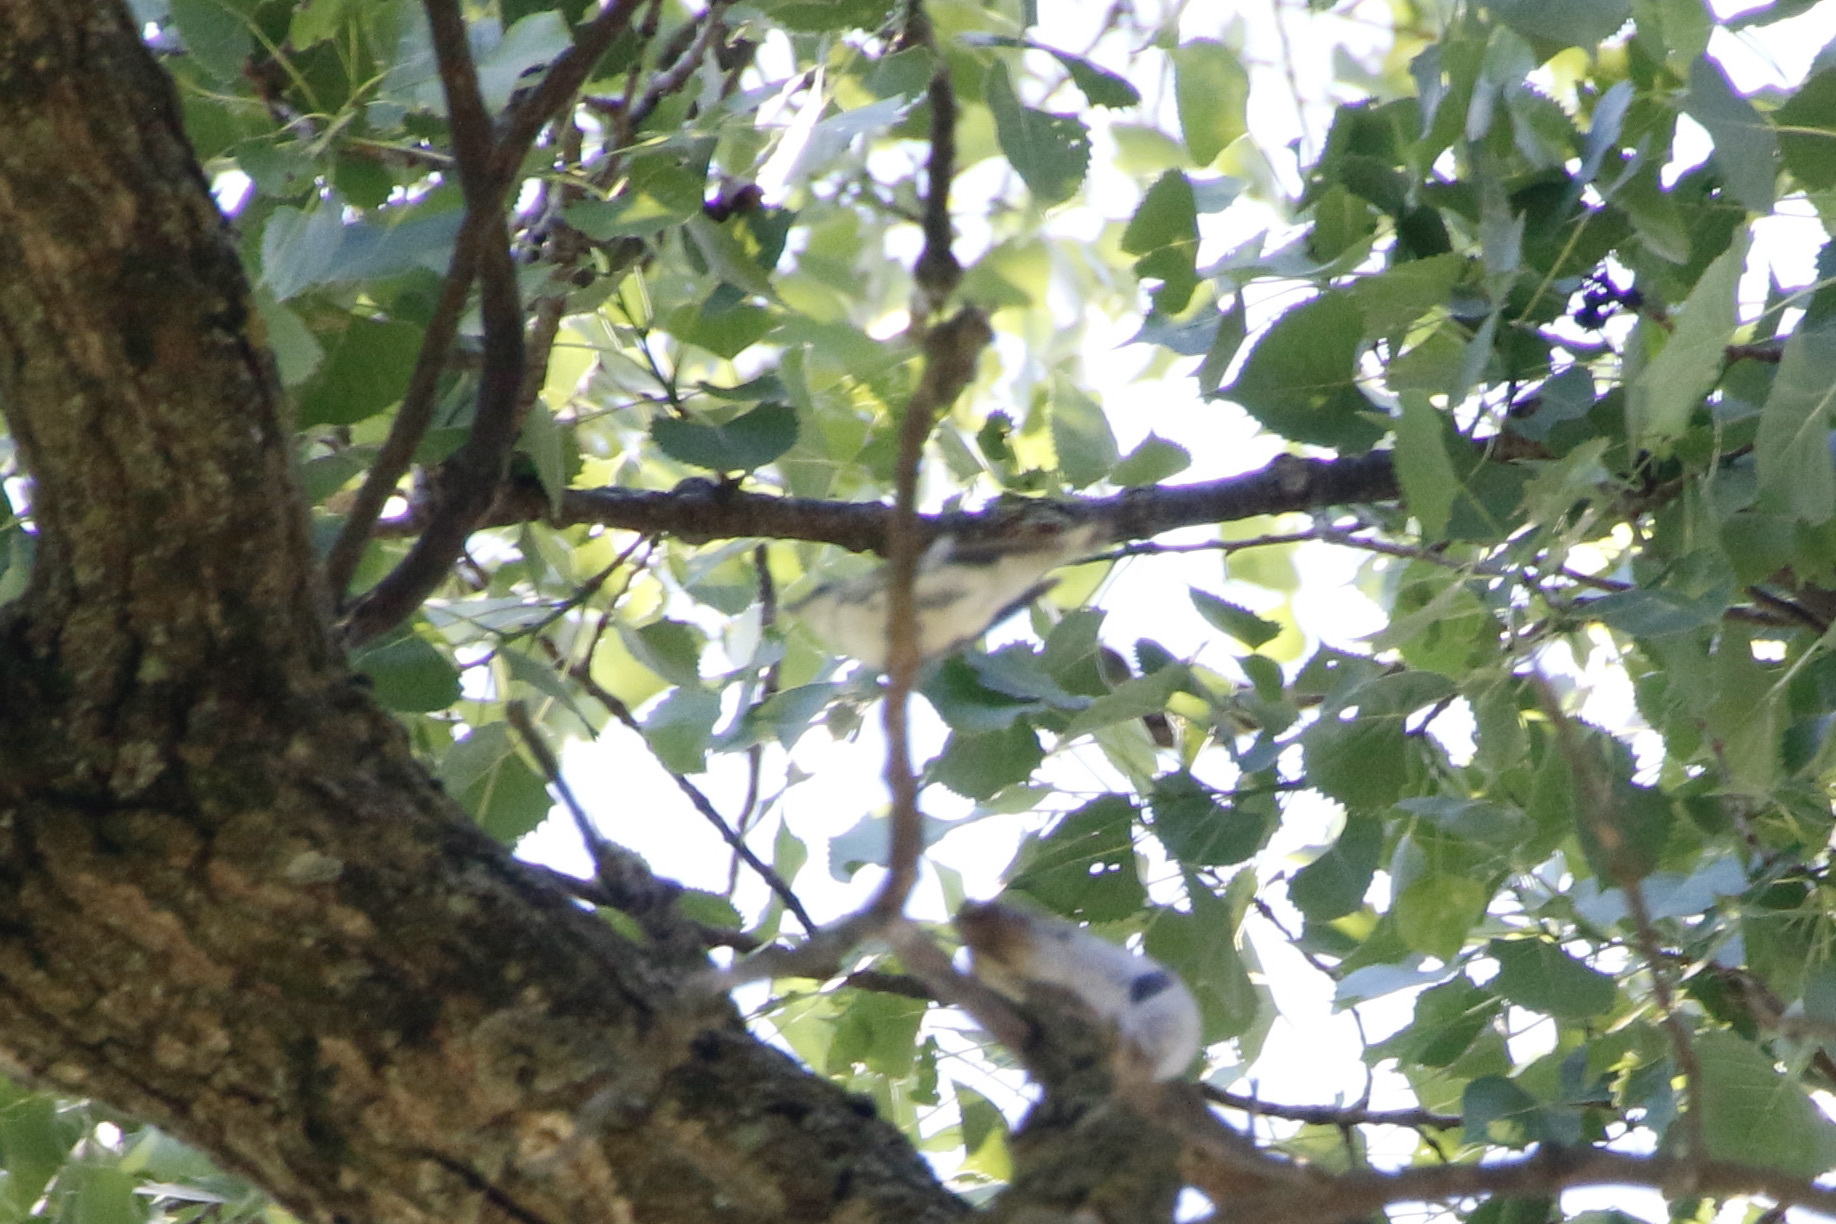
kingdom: Animalia
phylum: Chordata
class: Aves
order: Passeriformes
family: Parulidae
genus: Setophaga
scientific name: Setophaga cerulea
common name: Cerulean warbler
